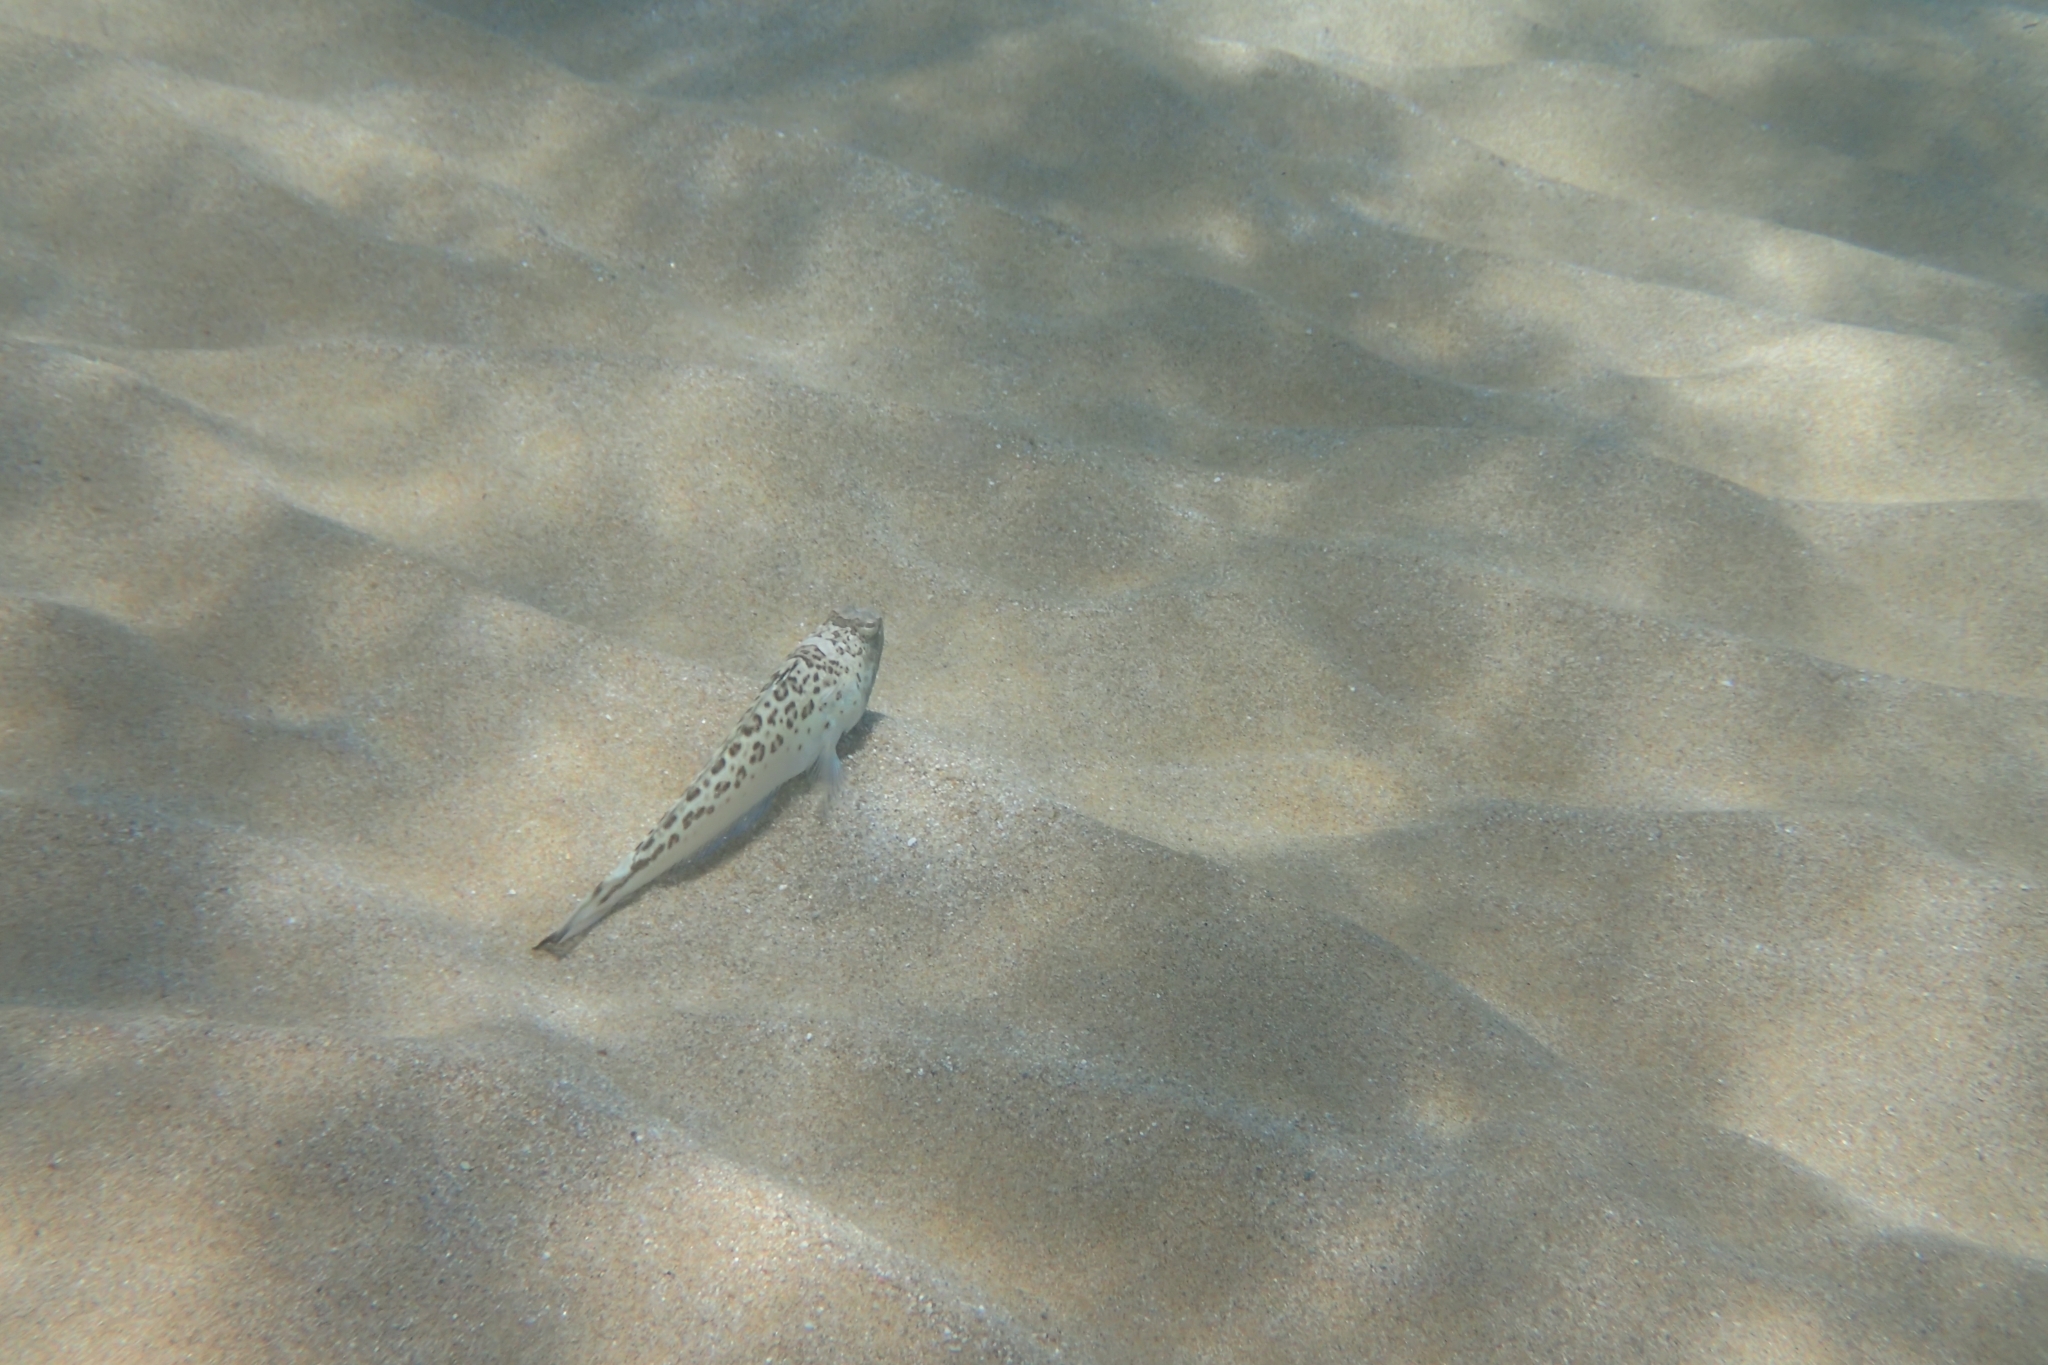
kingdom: Animalia
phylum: Chordata
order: Perciformes
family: Trachinidae
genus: Trachinus
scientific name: Trachinus radiatus
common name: Starry weever
